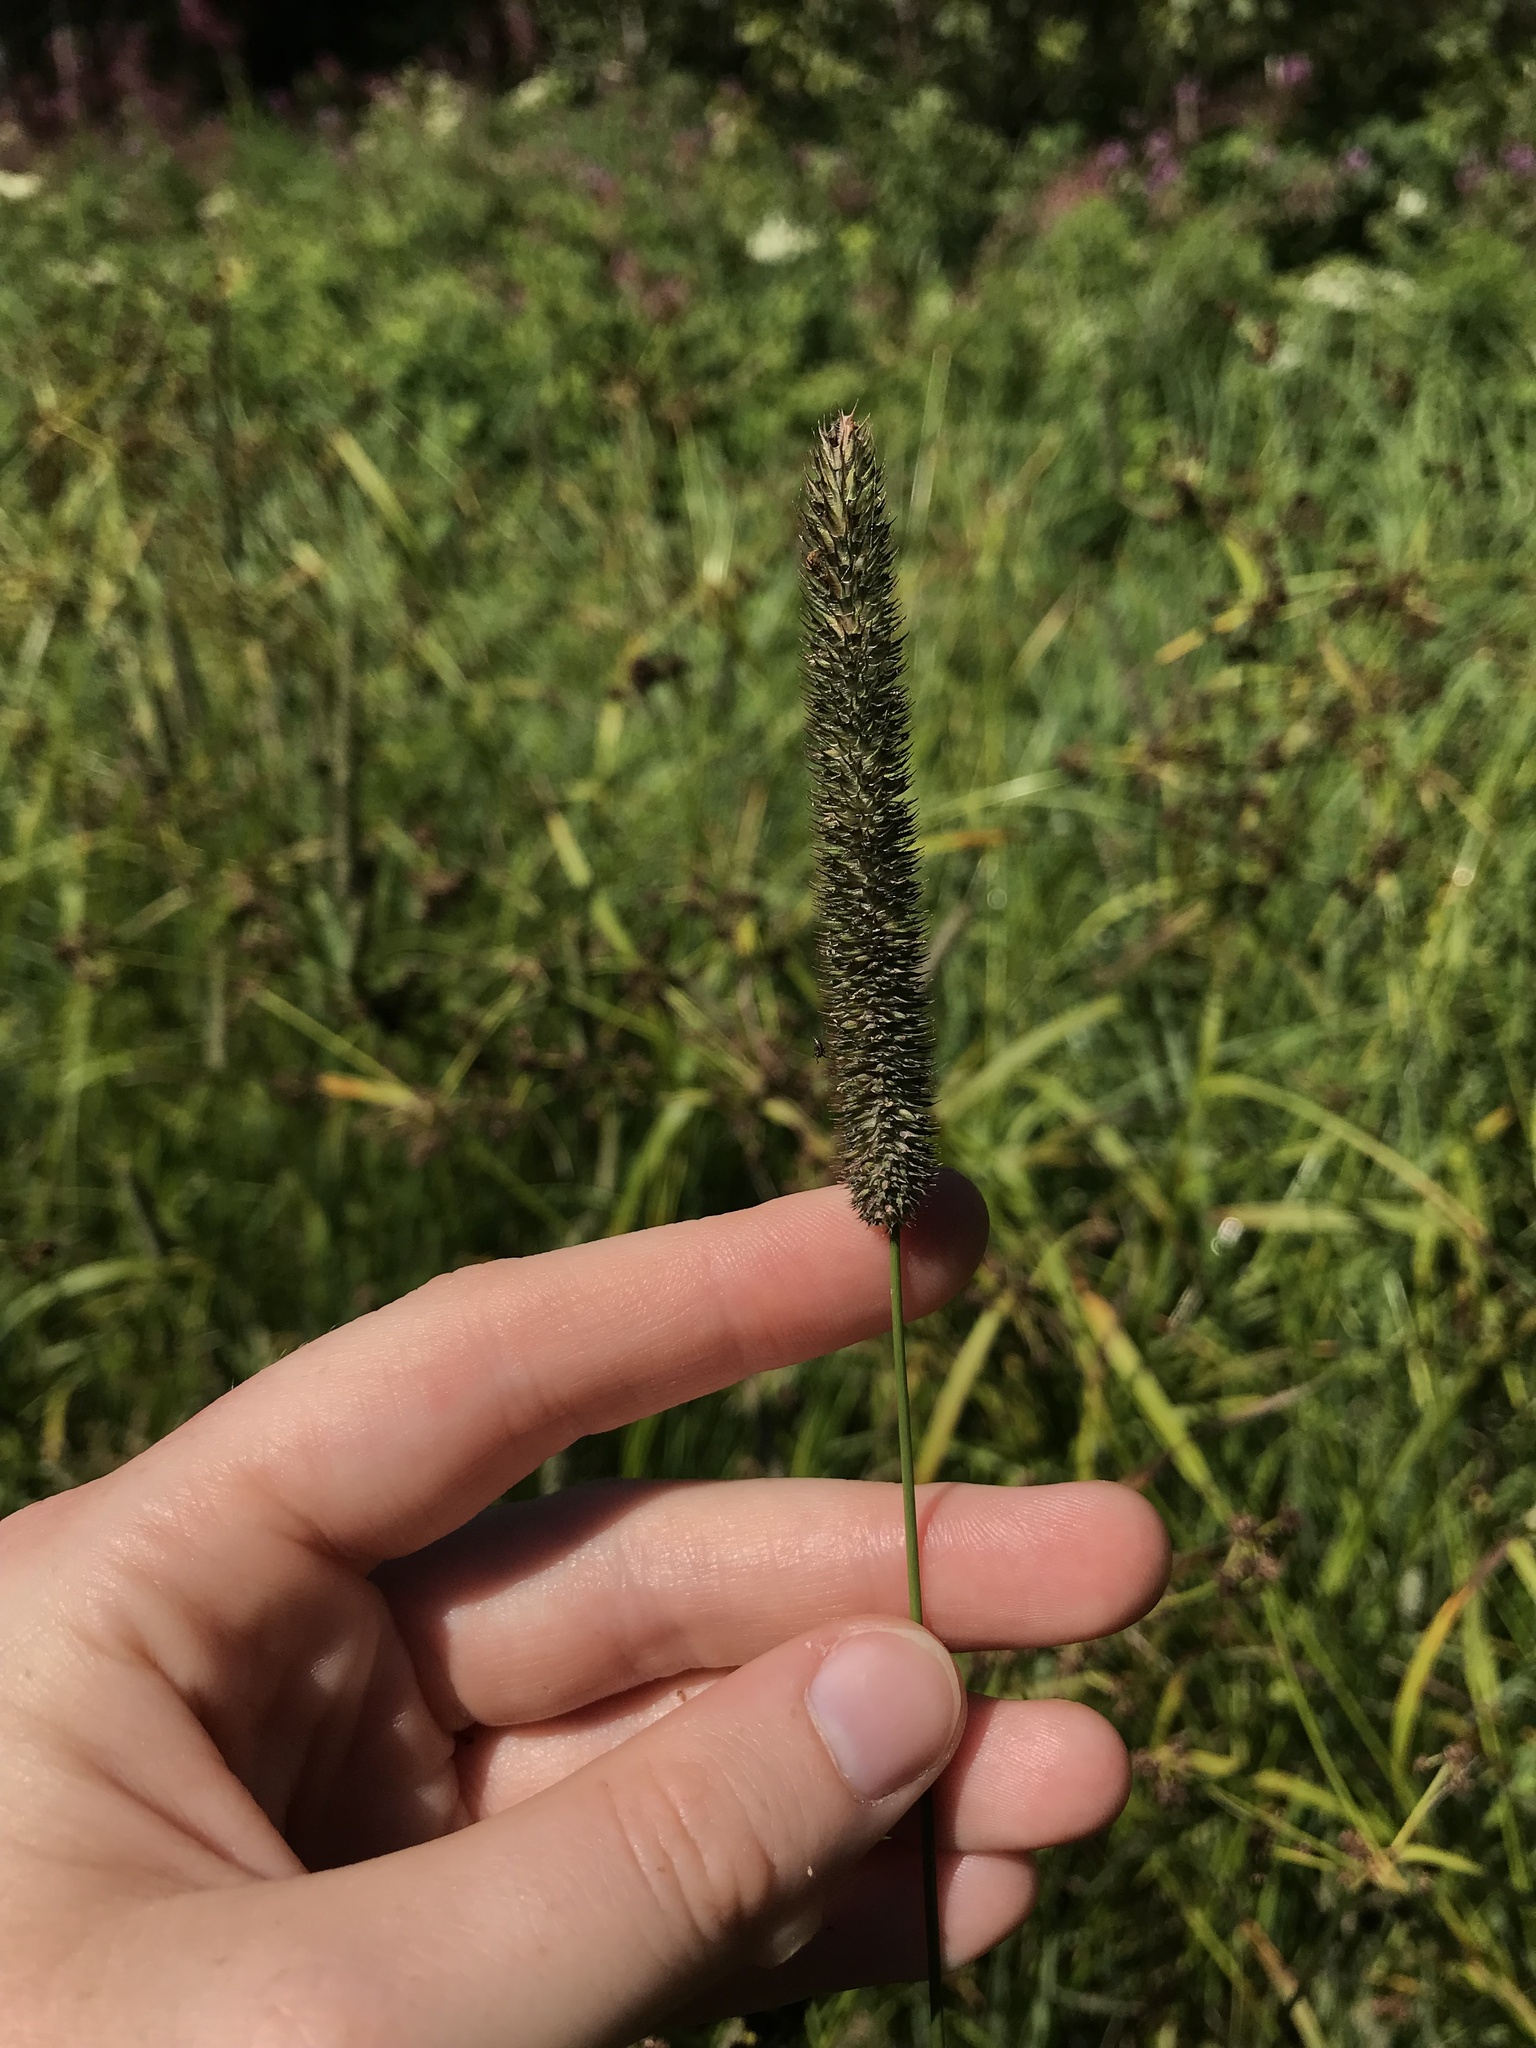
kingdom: Plantae
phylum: Tracheophyta
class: Liliopsida
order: Poales
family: Poaceae
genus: Phleum
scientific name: Phleum pratense
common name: Timothy grass
